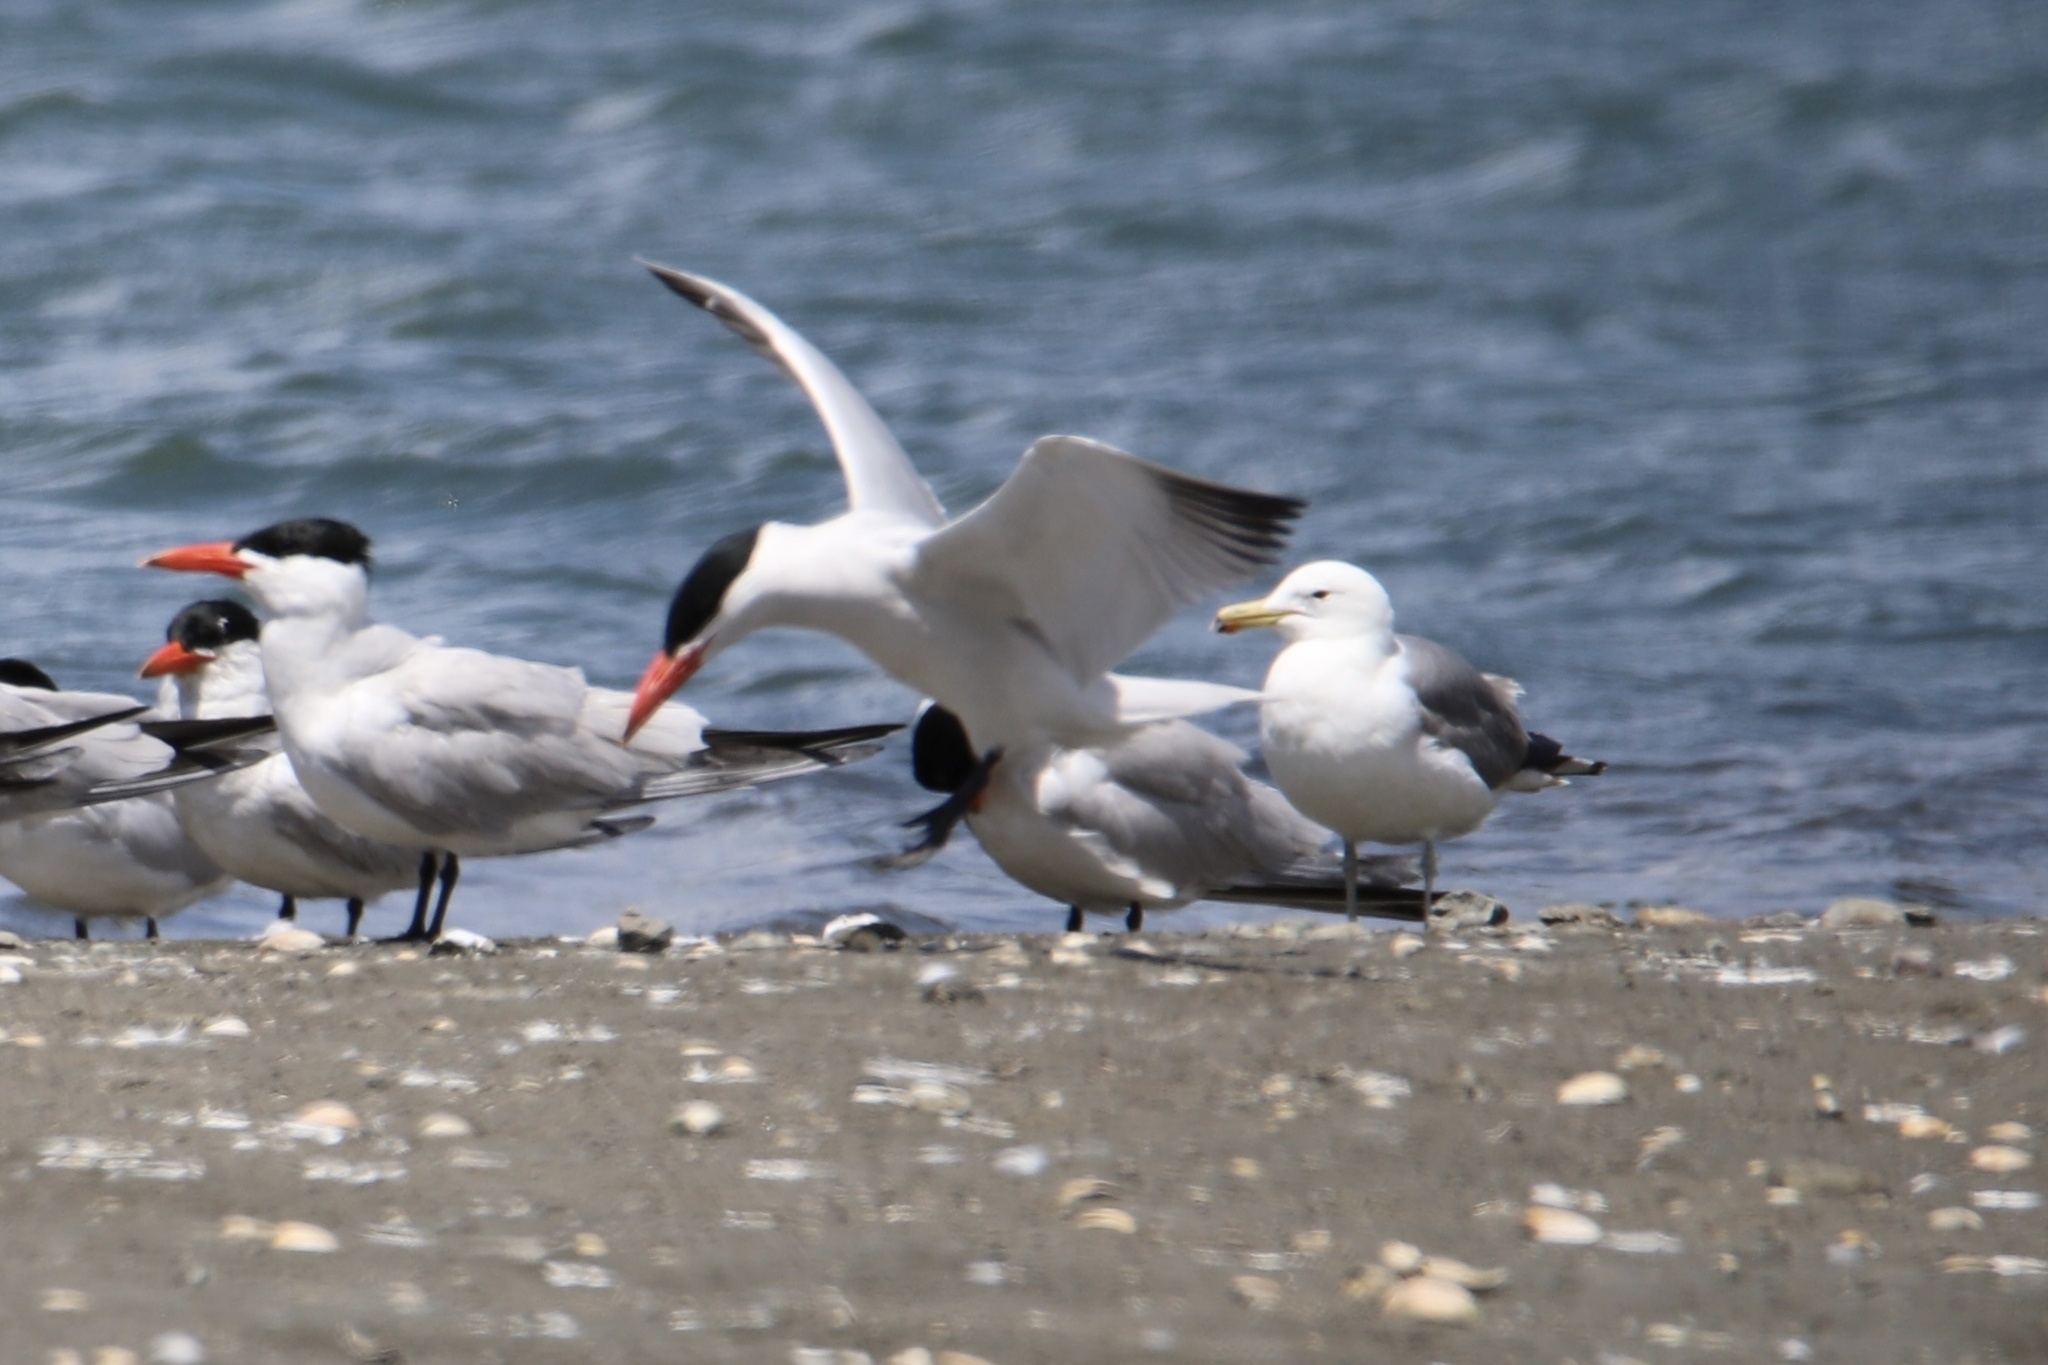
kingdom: Animalia
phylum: Chordata
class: Aves
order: Charadriiformes
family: Laridae
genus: Hydroprogne
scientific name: Hydroprogne caspia
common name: Caspian tern
